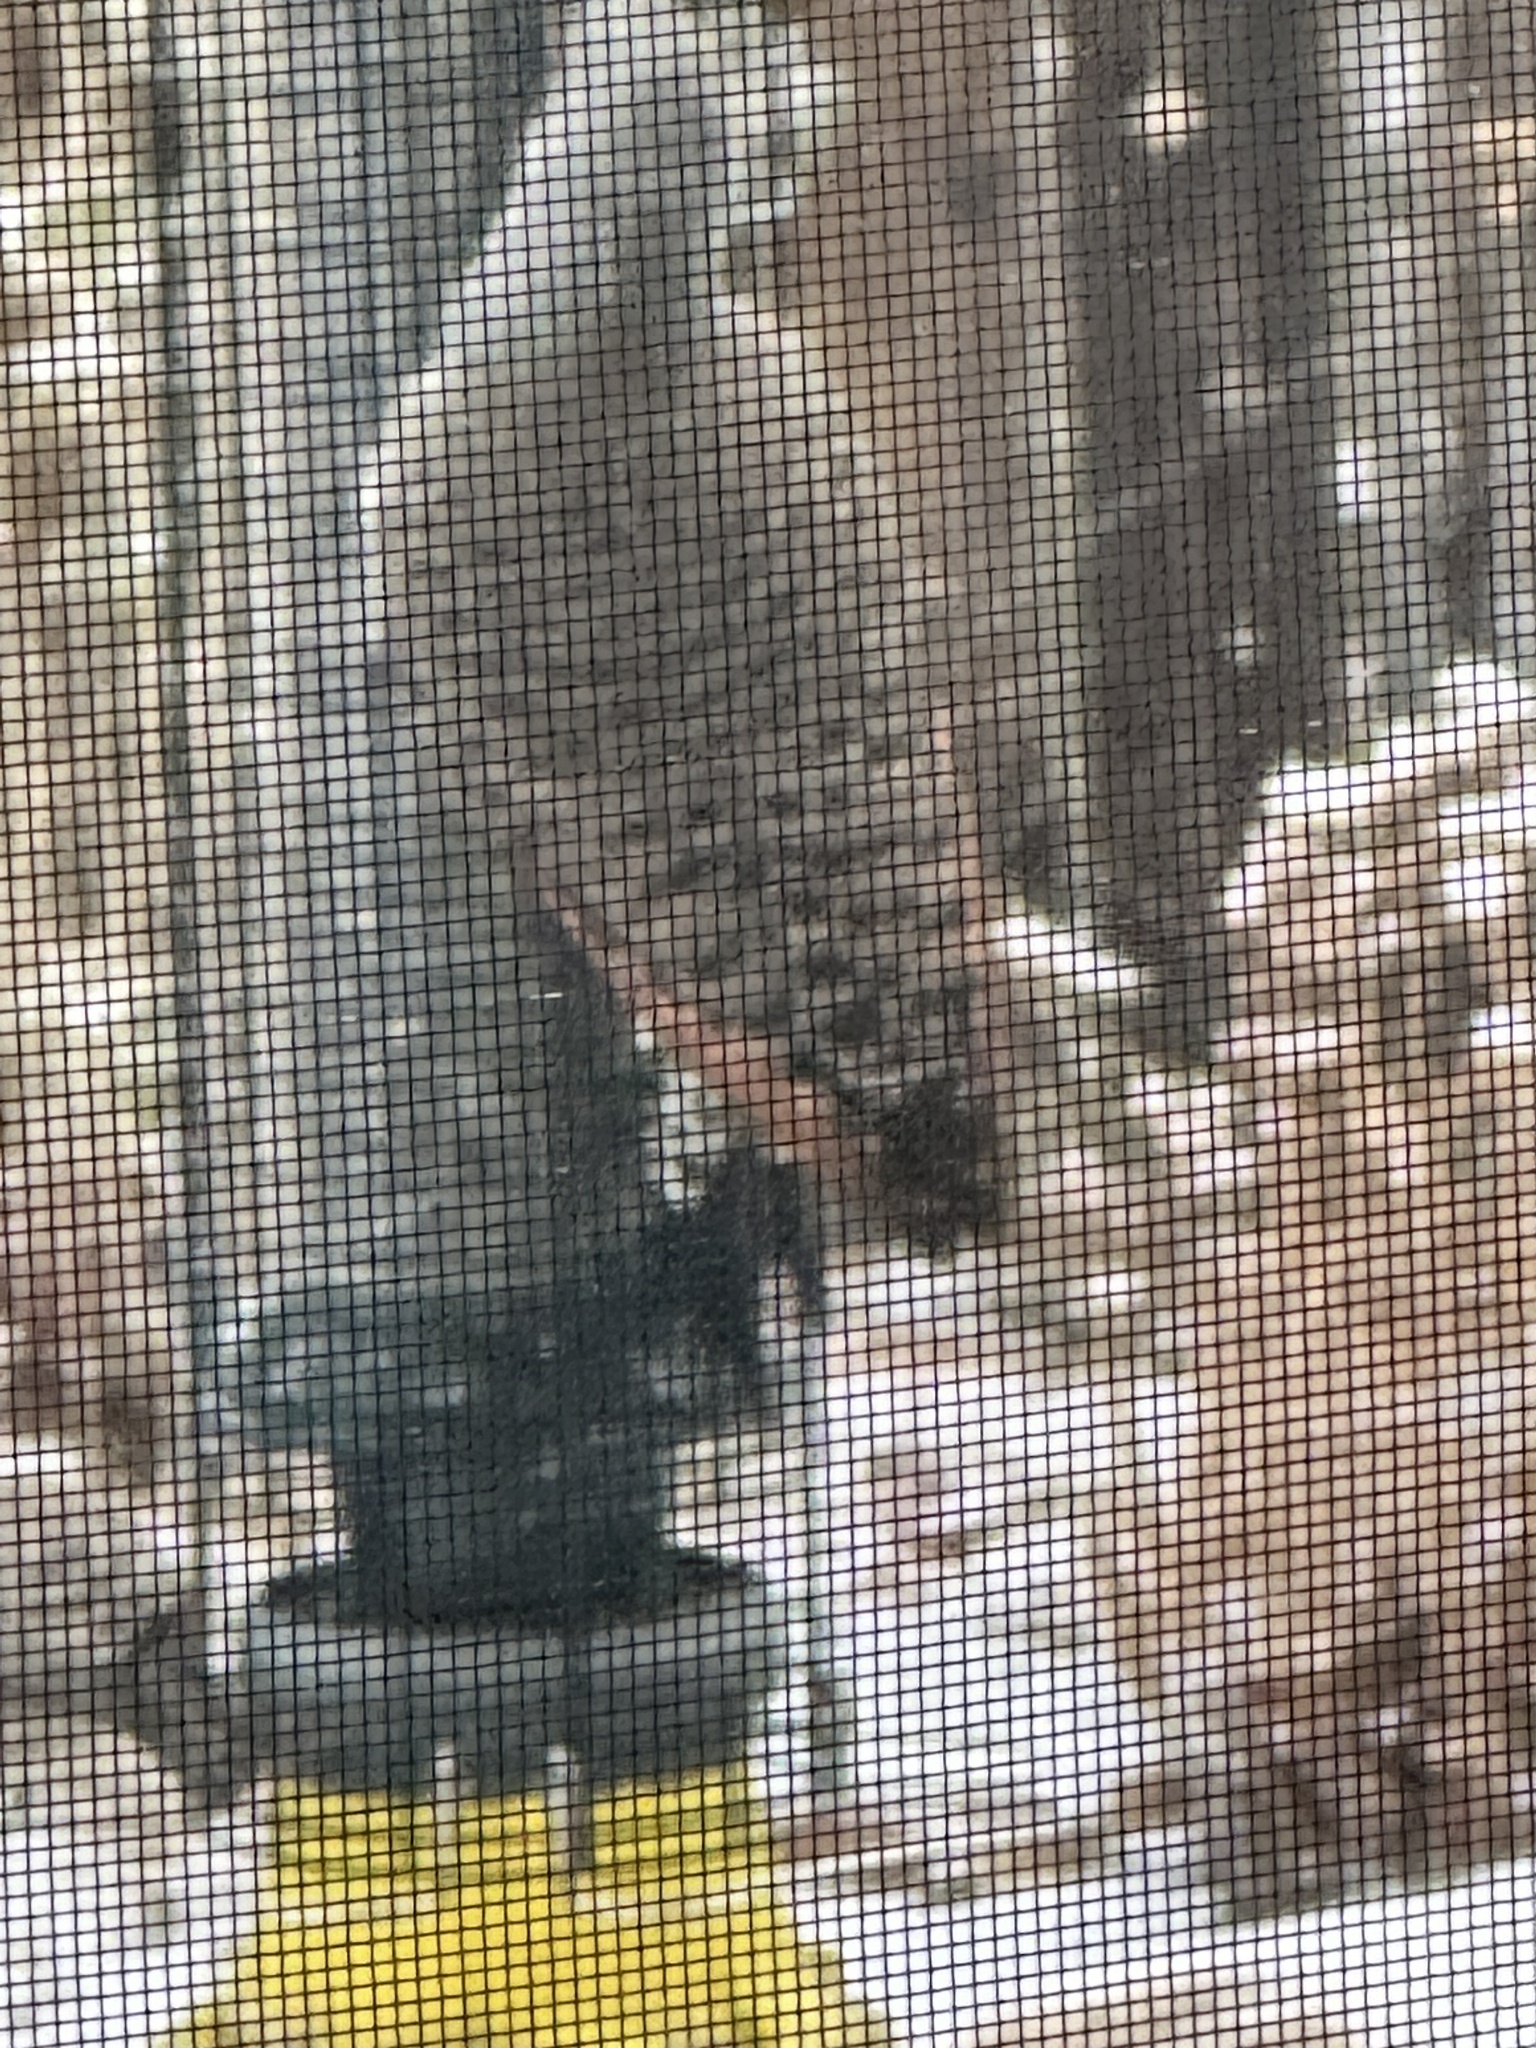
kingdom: Animalia
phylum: Chordata
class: Aves
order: Piciformes
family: Picidae
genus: Colaptes
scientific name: Colaptes auratus
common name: Northern flicker
